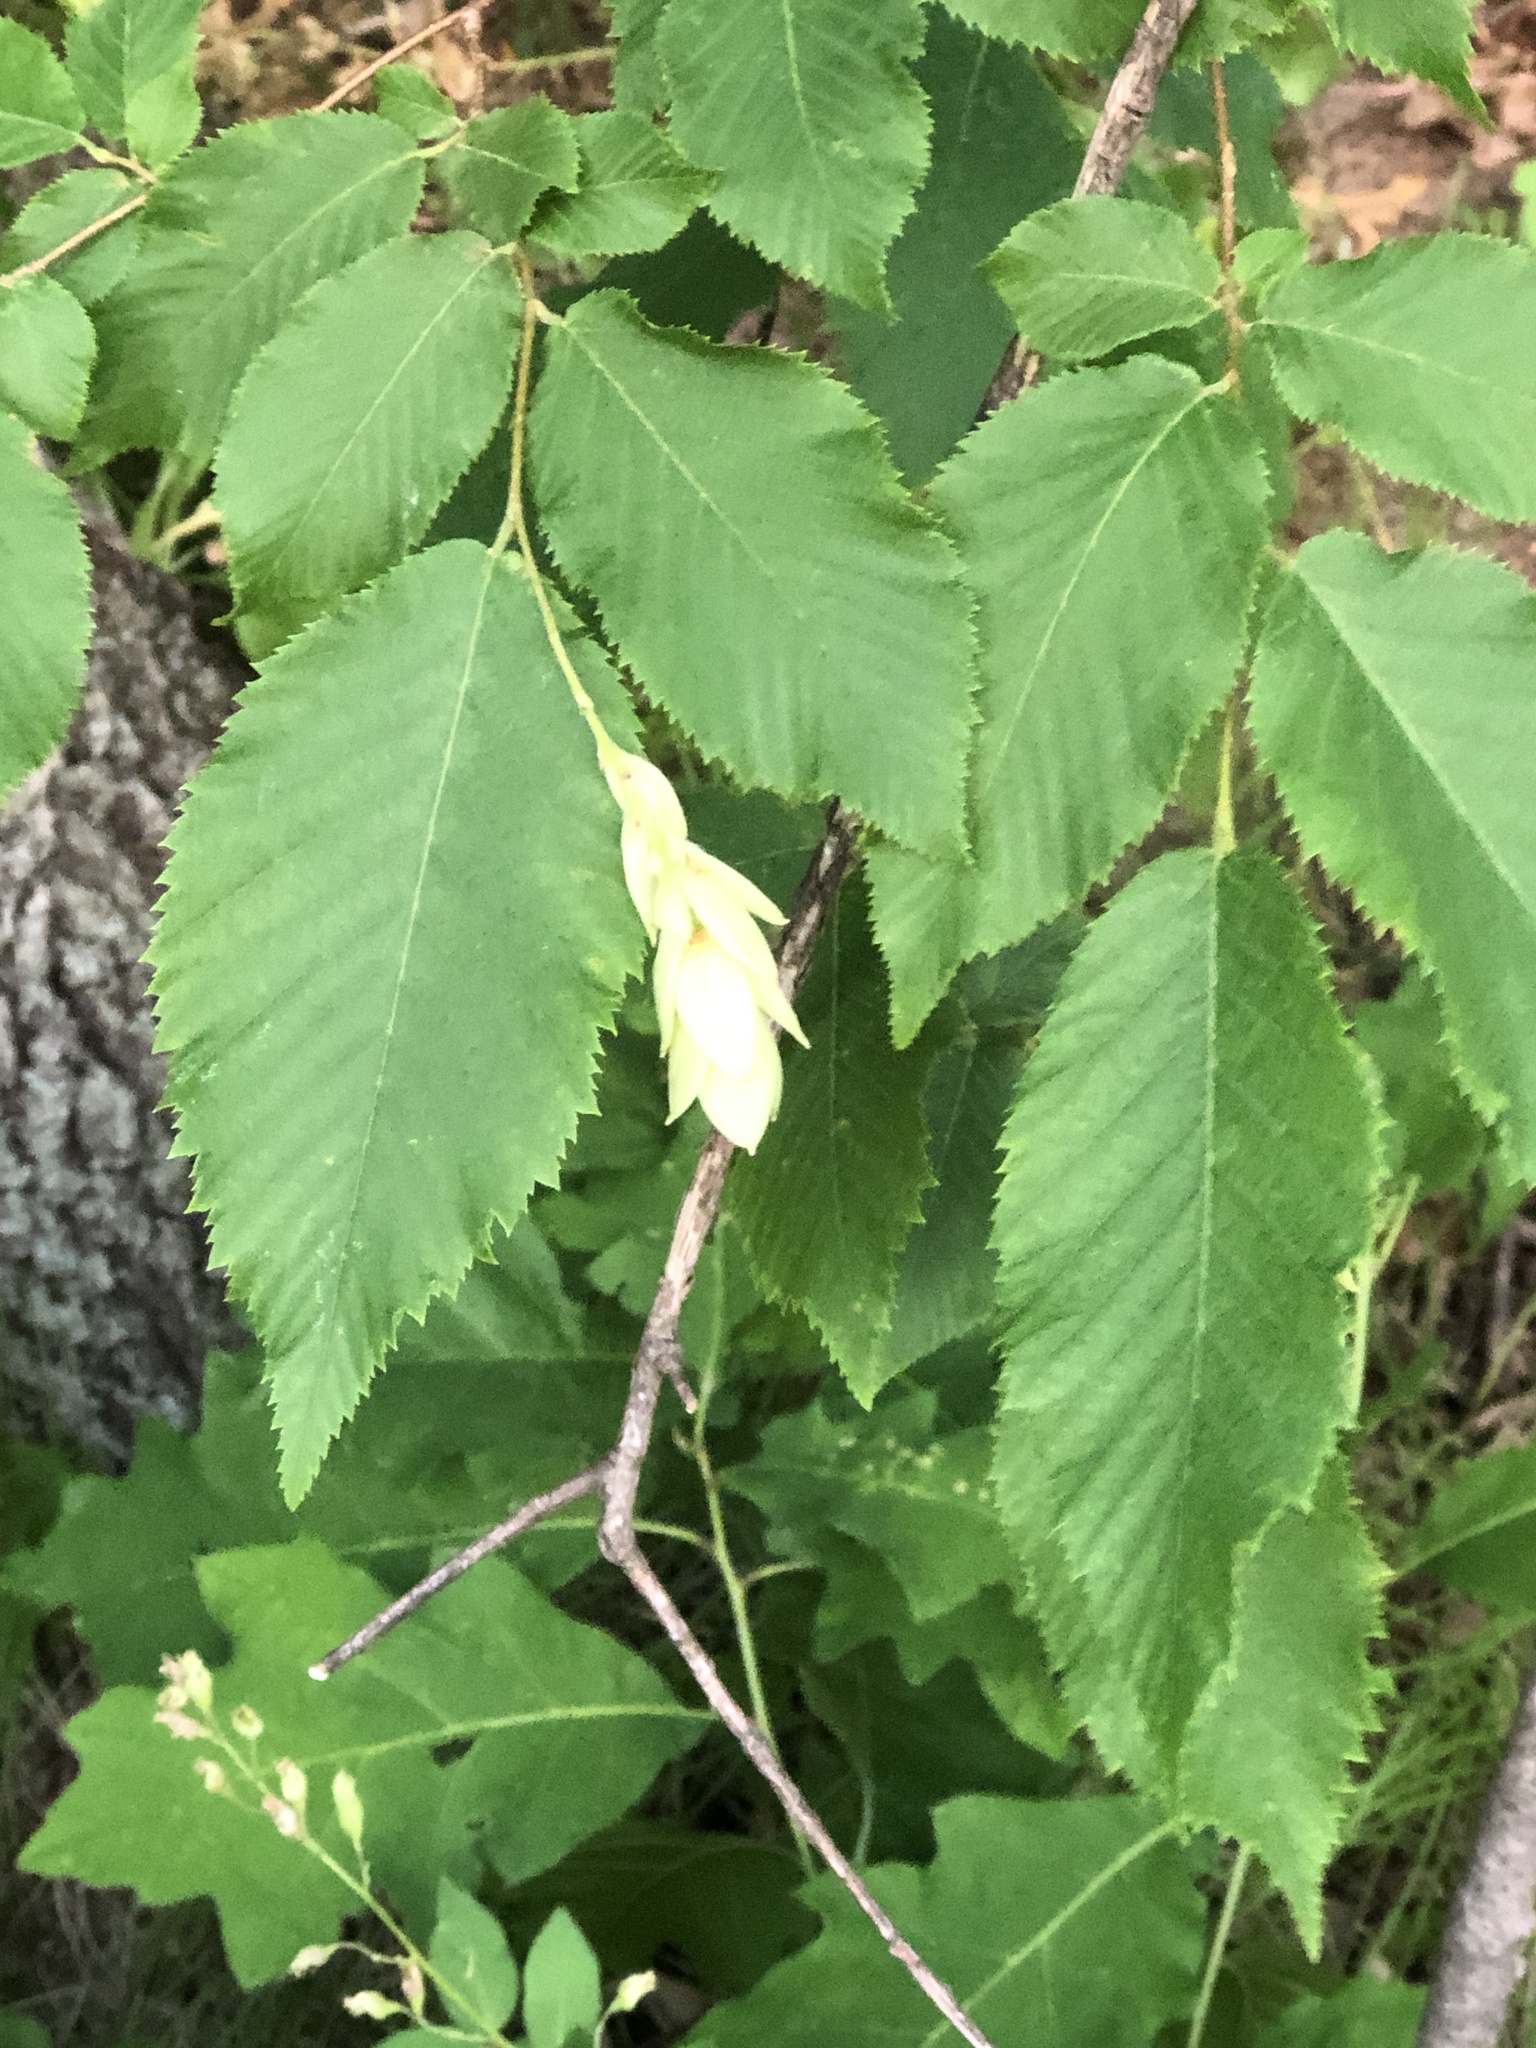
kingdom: Plantae
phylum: Tracheophyta
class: Magnoliopsida
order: Fagales
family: Betulaceae
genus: Ostrya
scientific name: Ostrya virginiana
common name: Ironwood
